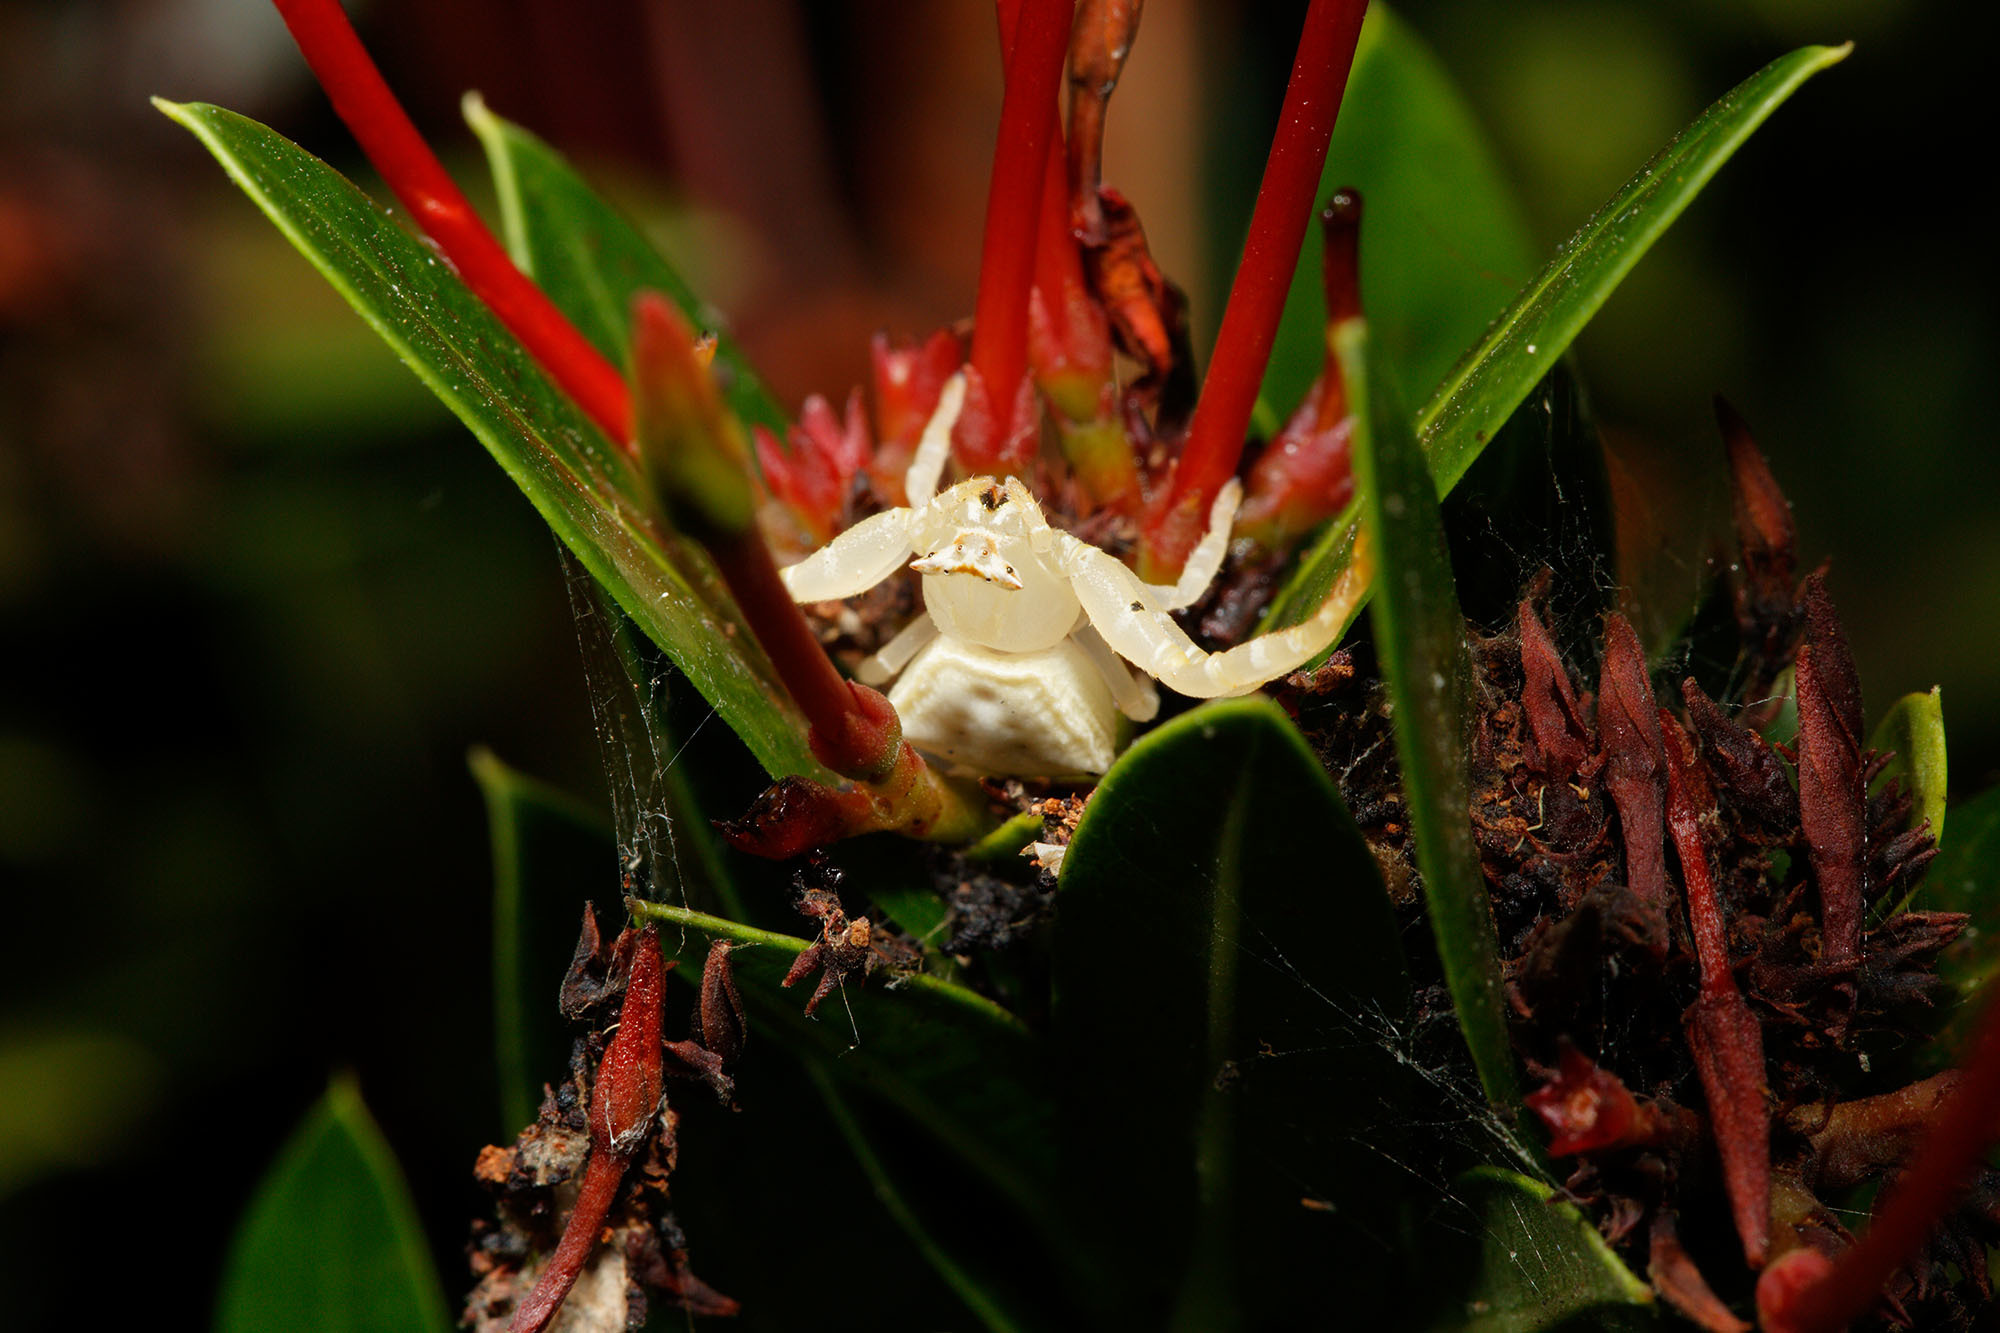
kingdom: Animalia
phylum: Arthropoda
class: Arachnida
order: Araneae
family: Thomisidae
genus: Thomisus
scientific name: Thomisus spectabilis
